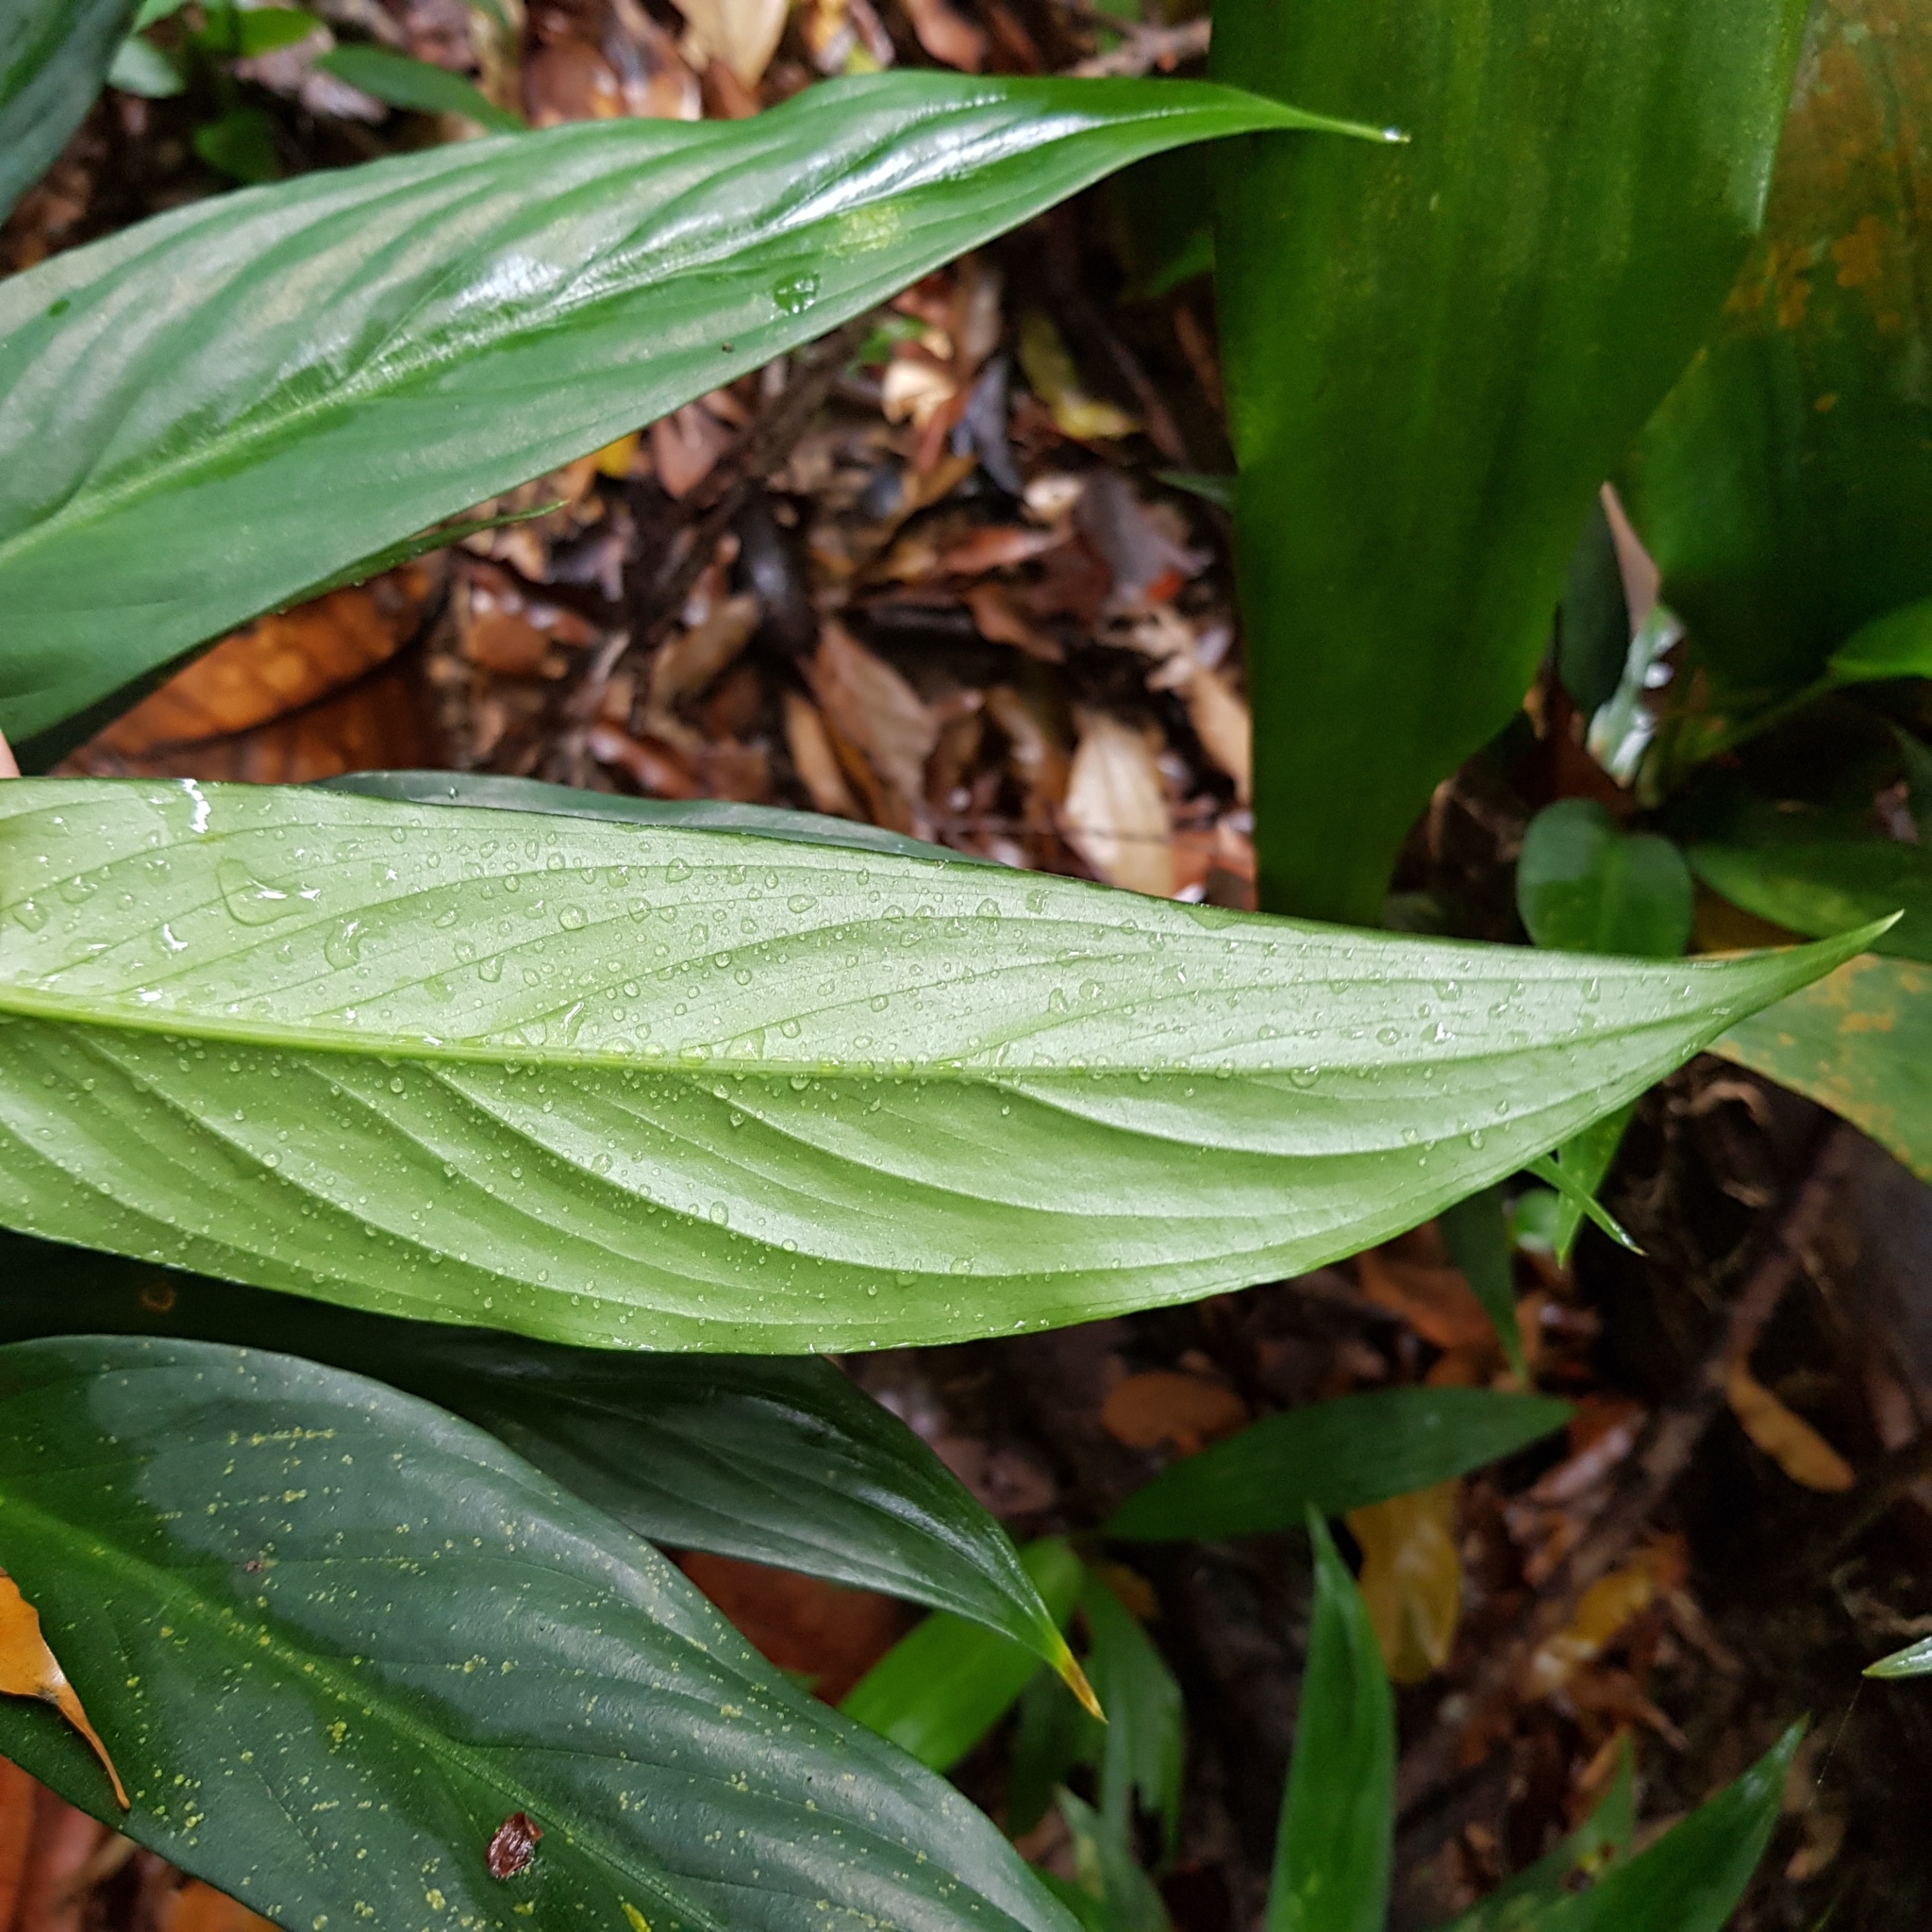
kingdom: Plantae
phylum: Tracheophyta
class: Liliopsida
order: Alismatales
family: Araceae
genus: Aglaonema
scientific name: Aglaonema simplex
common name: Malayan-sword
